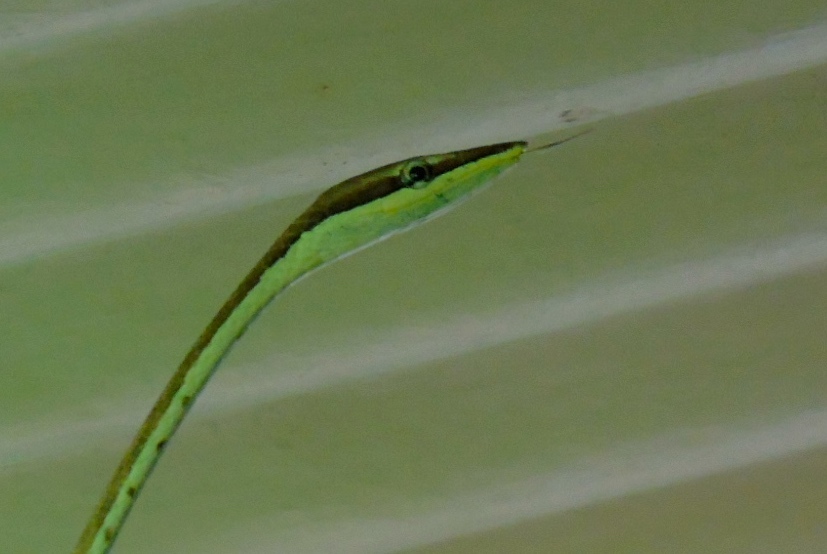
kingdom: Animalia
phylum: Chordata
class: Squamata
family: Colubridae
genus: Oxybelis
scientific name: Oxybelis microphthalmus
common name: Thrornscrub vine snake
